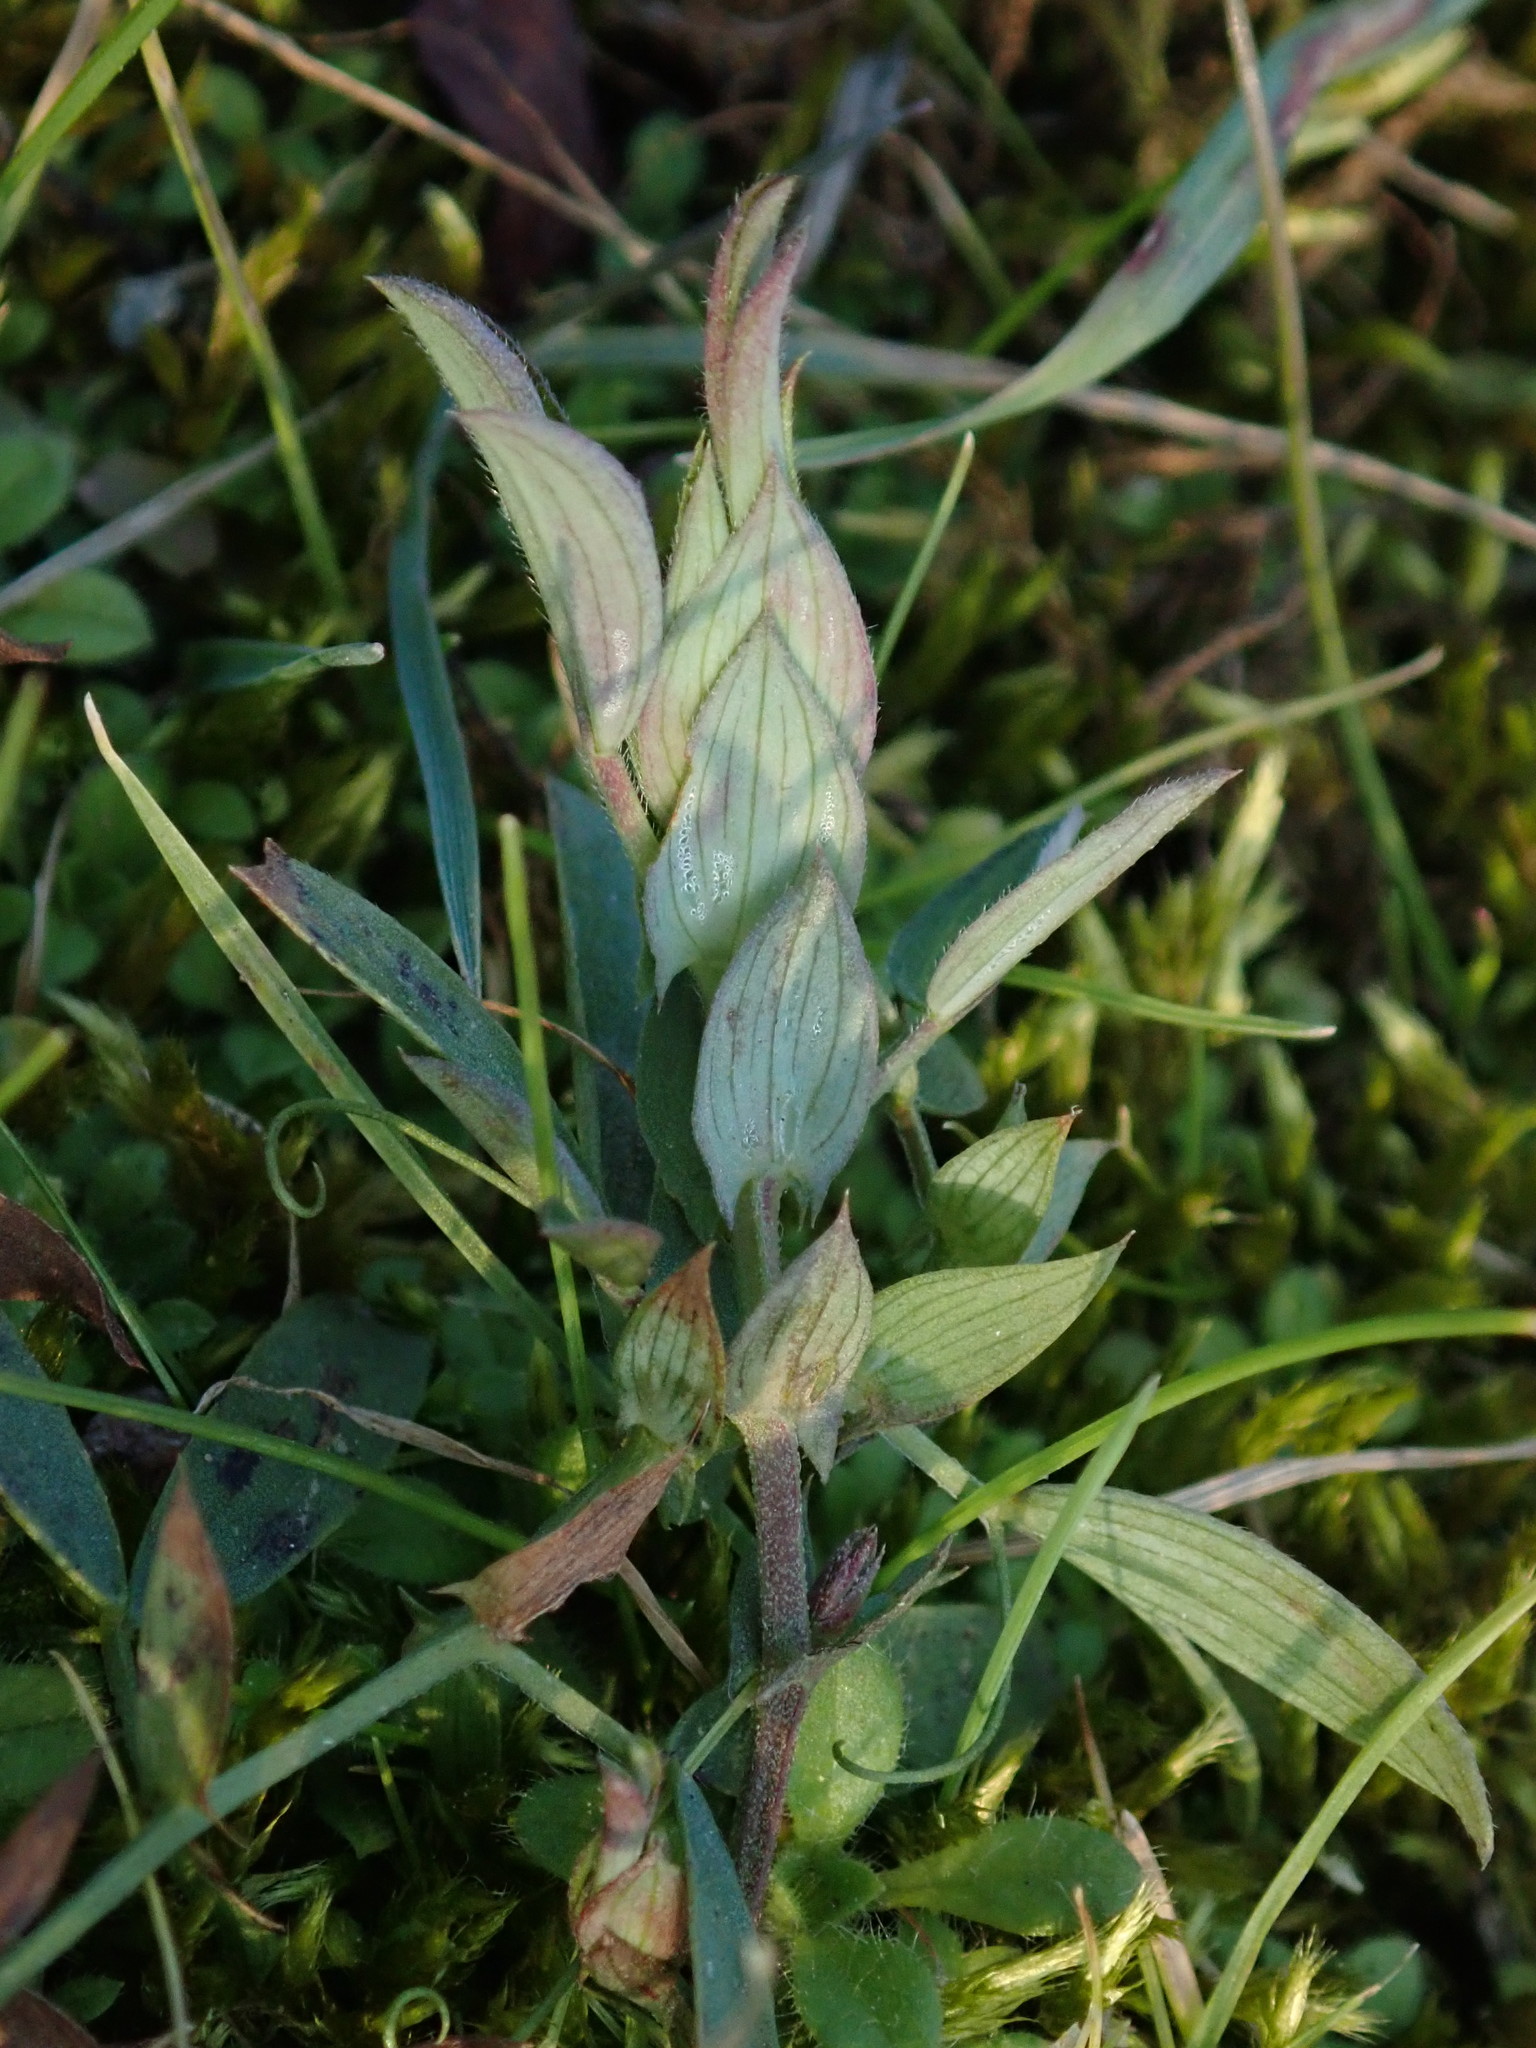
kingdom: Plantae
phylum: Tracheophyta
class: Magnoliopsida
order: Fabales
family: Fabaceae
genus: Lathyrus
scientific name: Lathyrus pratensis
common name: Meadow vetchling
